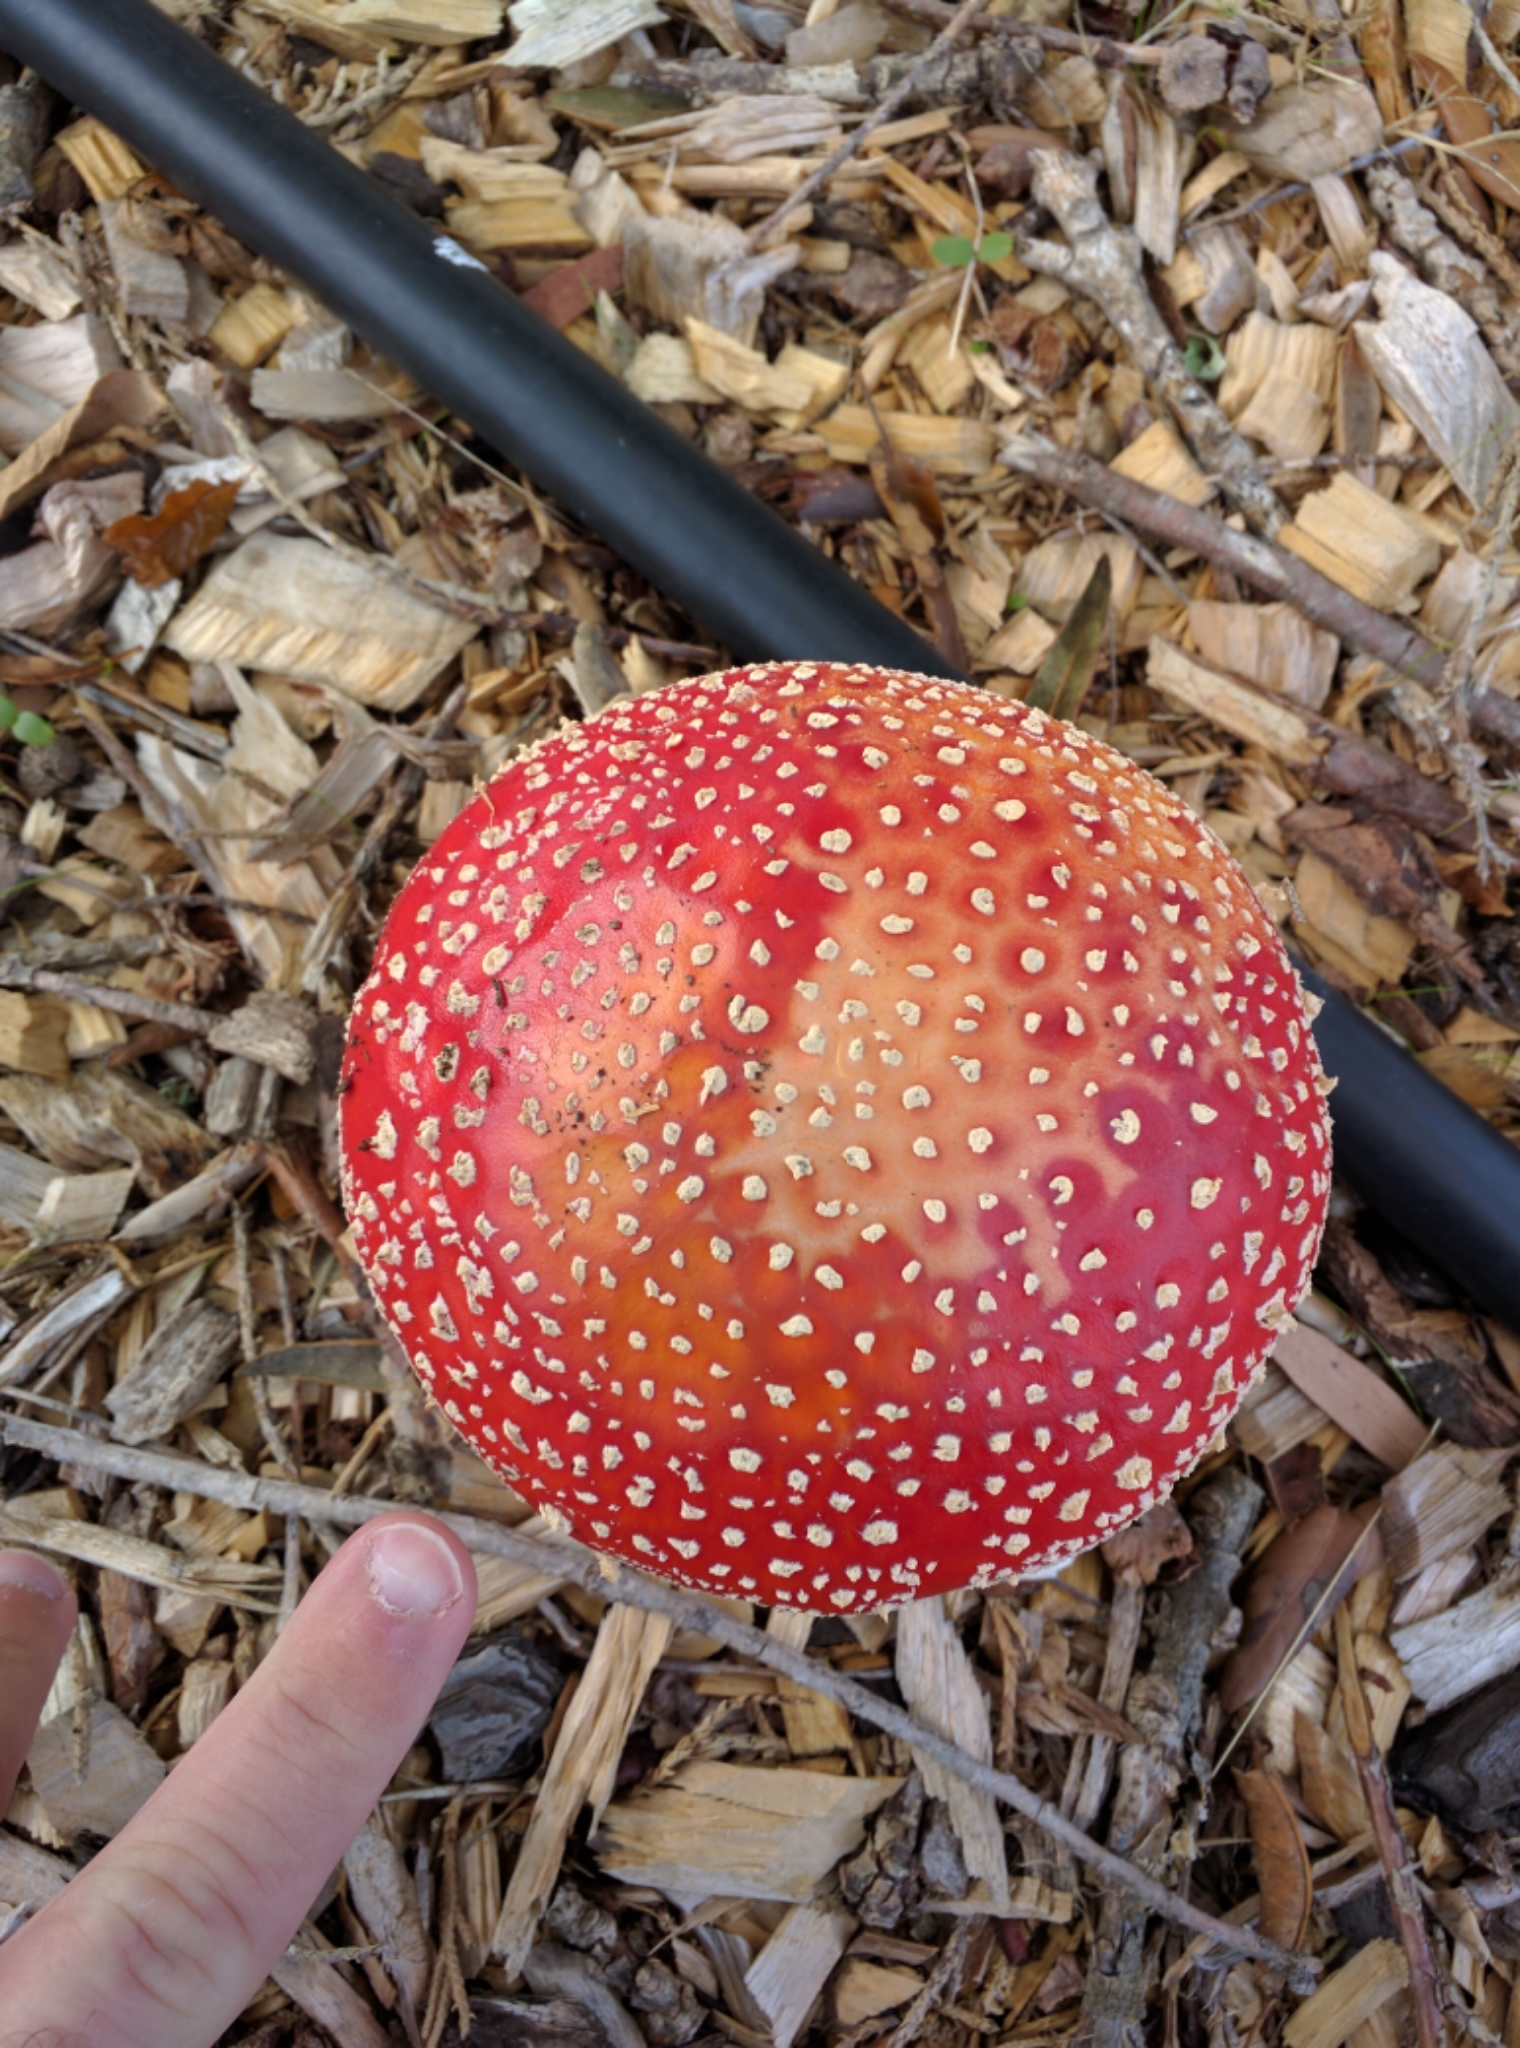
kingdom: Fungi
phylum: Basidiomycota
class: Agaricomycetes
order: Agaricales
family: Amanitaceae
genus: Amanita
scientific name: Amanita muscaria
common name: Fly agaric
